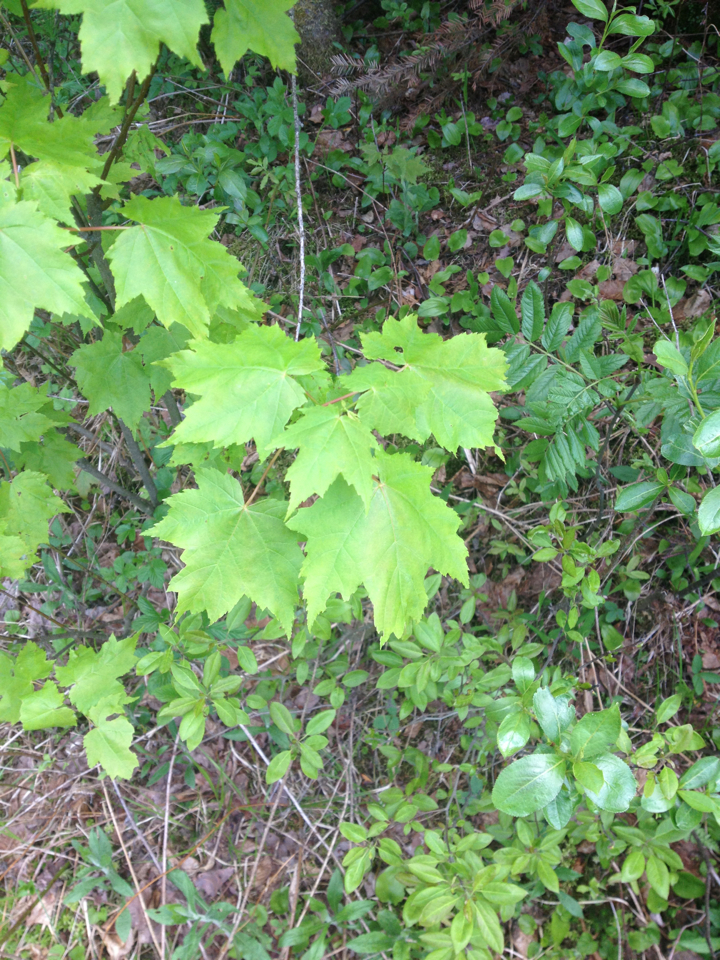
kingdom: Plantae
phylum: Tracheophyta
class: Magnoliopsida
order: Sapindales
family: Sapindaceae
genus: Acer
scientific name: Acer rubrum
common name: Red maple
